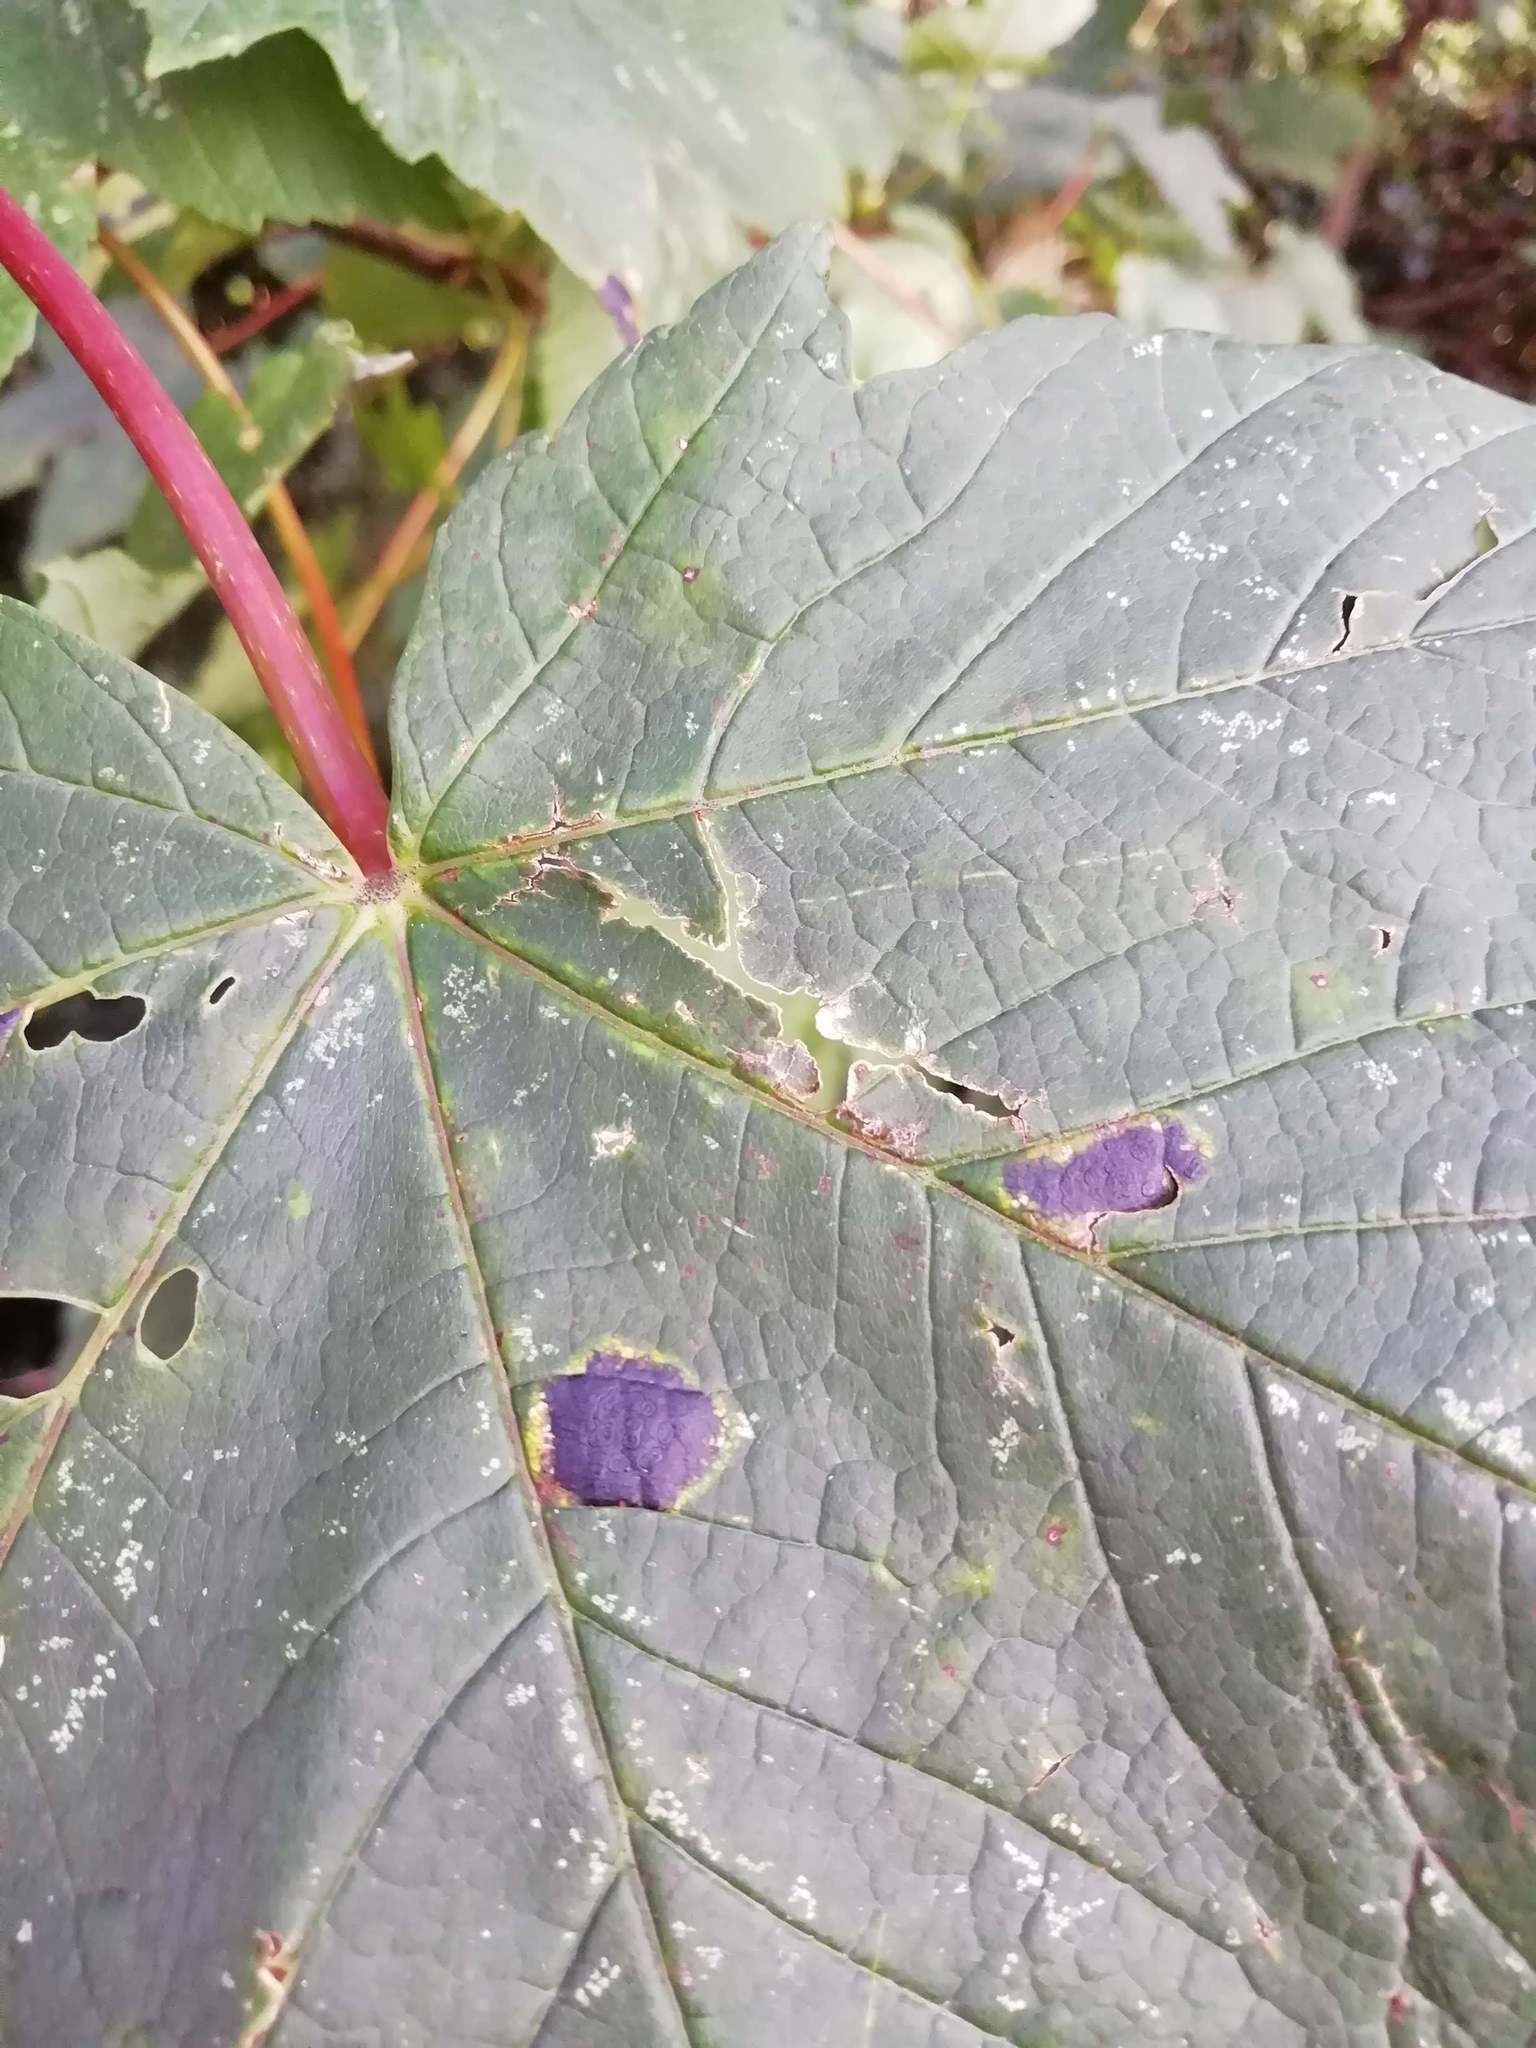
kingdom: Fungi
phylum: Ascomycota
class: Leotiomycetes
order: Rhytismatales
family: Rhytismataceae
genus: Rhytisma
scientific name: Rhytisma acerinum
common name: European tar spot
